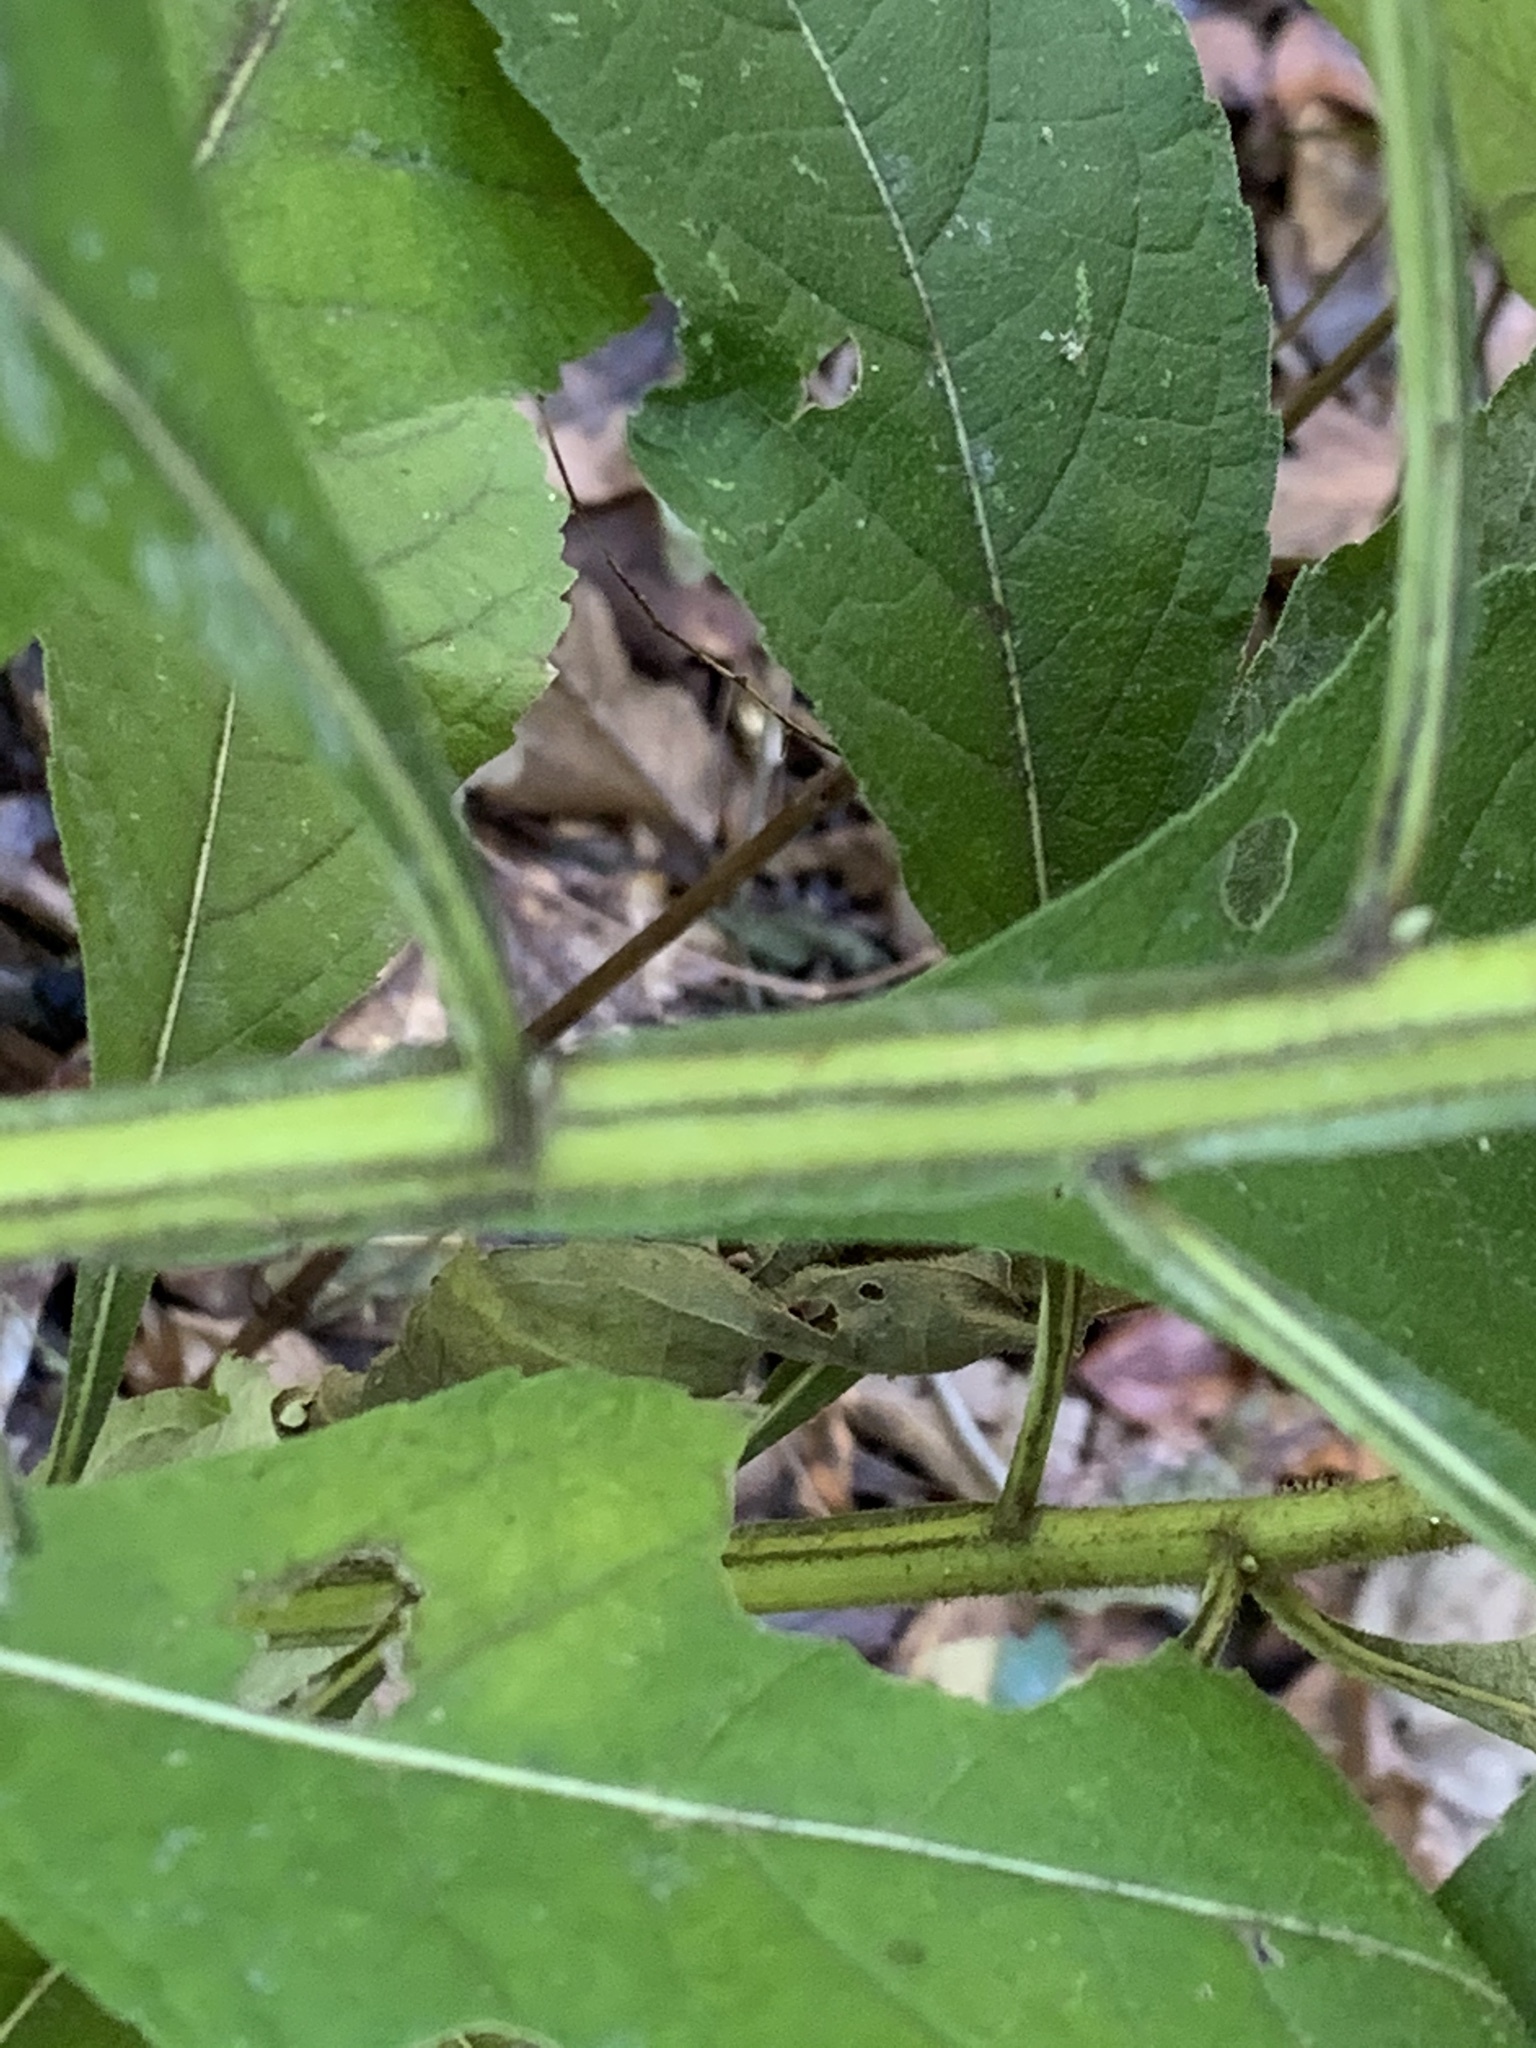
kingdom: Plantae
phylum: Tracheophyta
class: Magnoliopsida
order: Asterales
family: Asteraceae
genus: Verbesina
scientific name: Verbesina alternifolia
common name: Wingstem
